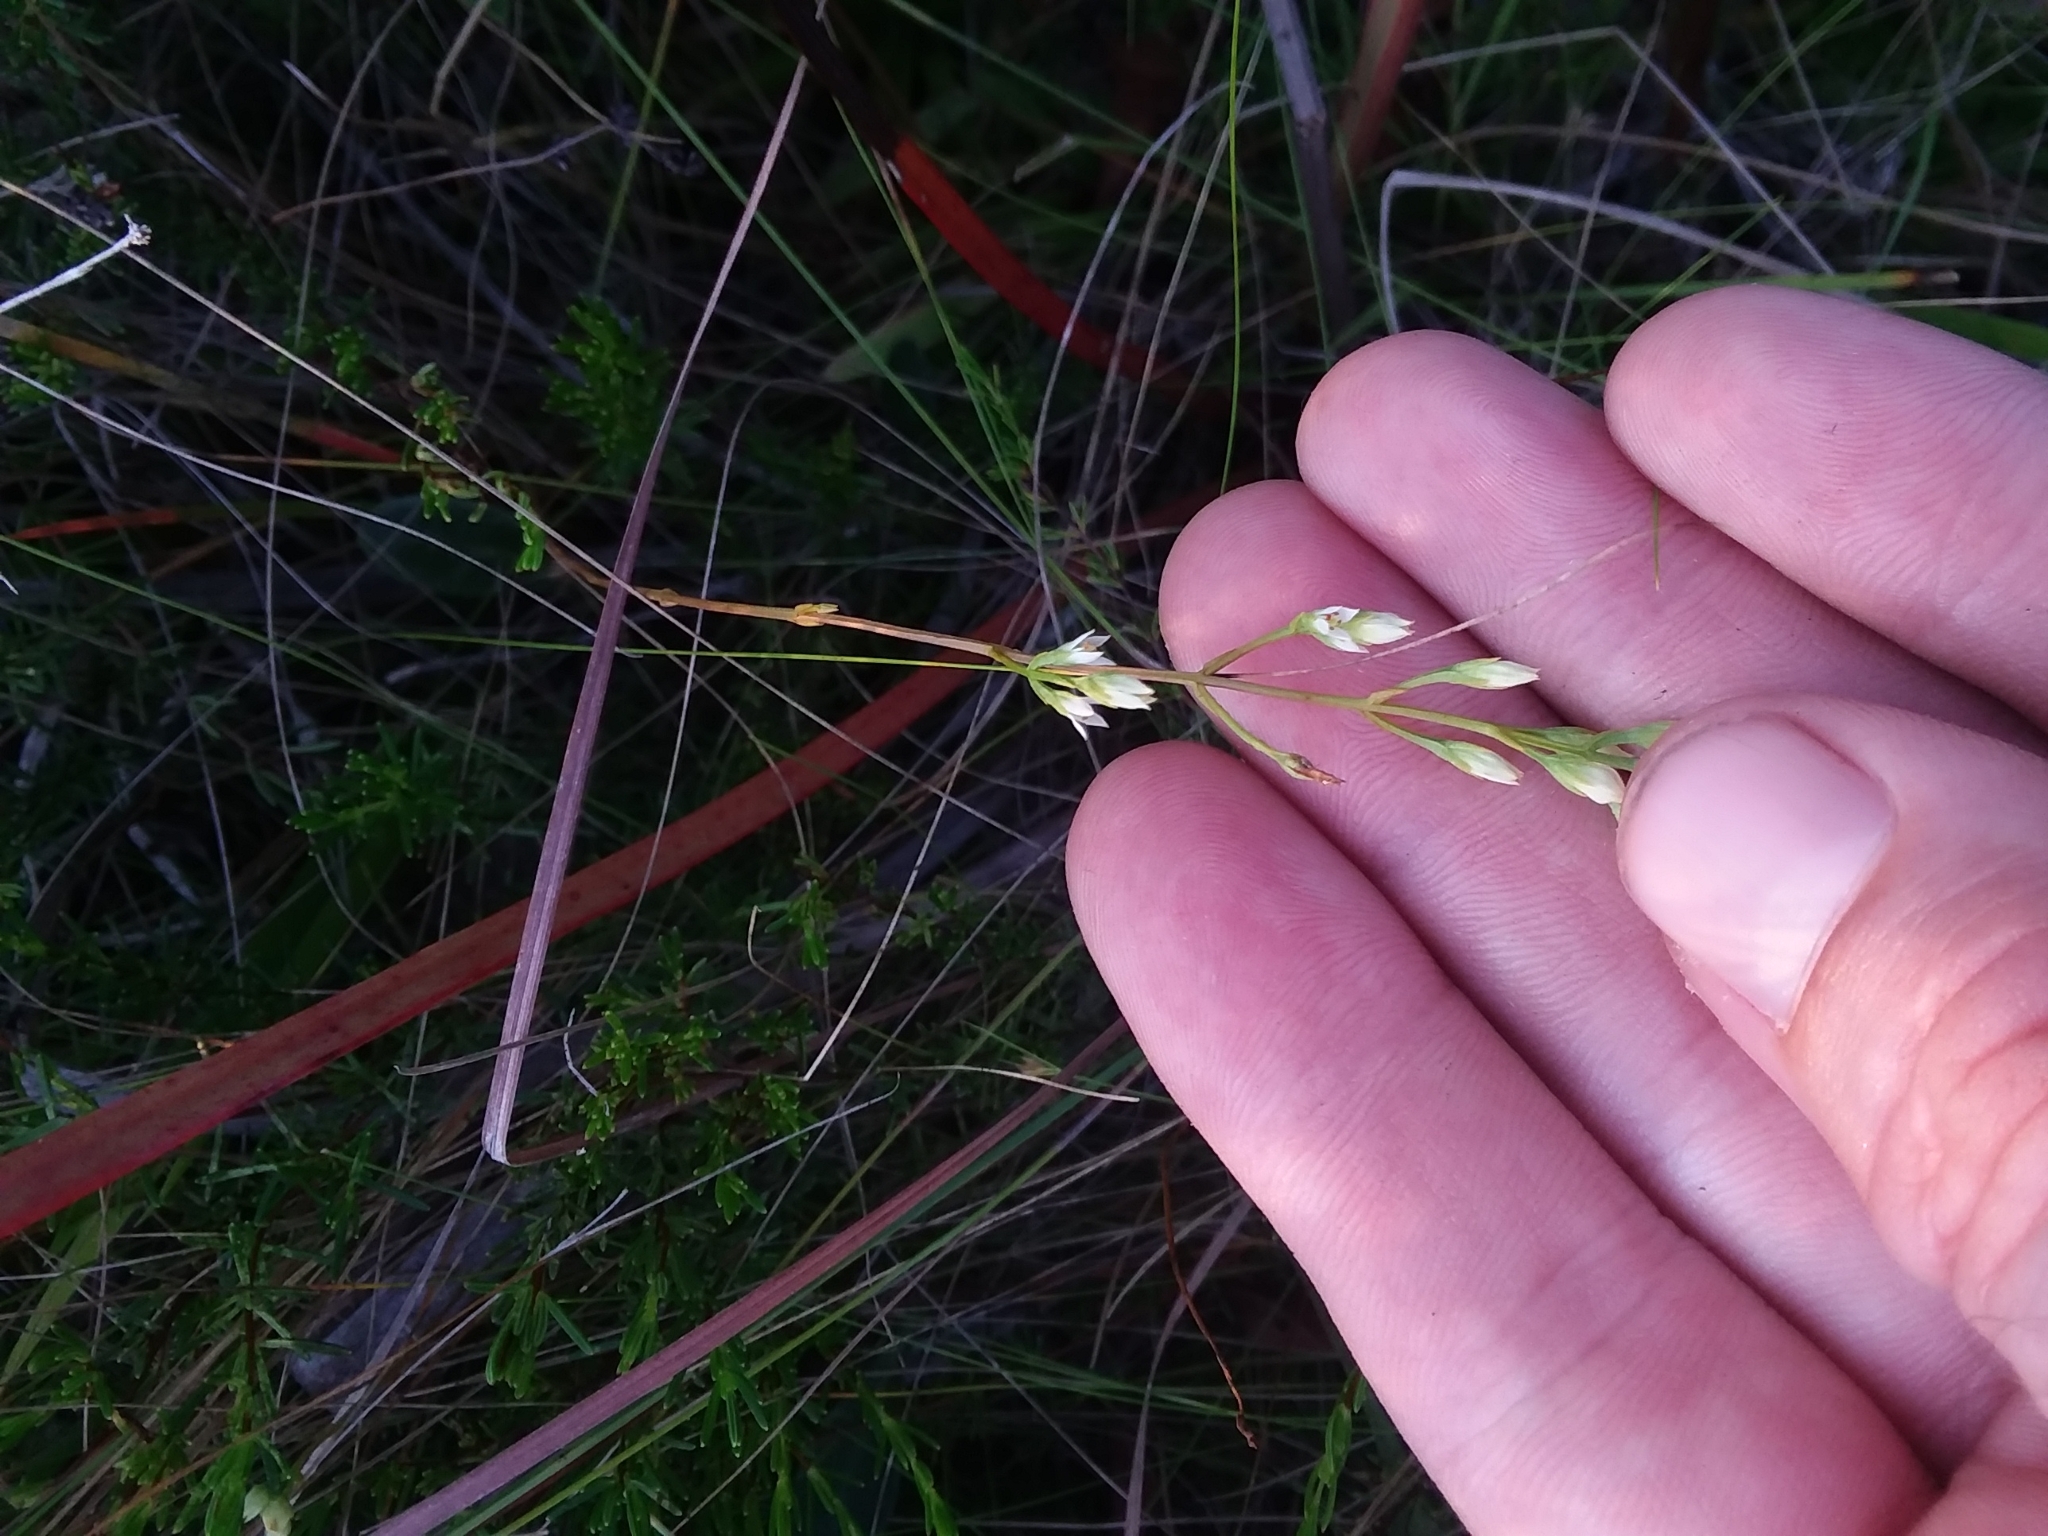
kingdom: Plantae
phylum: Tracheophyta
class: Magnoliopsida
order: Gentianales
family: Gentianaceae
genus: Bartonia
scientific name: Bartonia paniculata
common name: Branched bartonia
